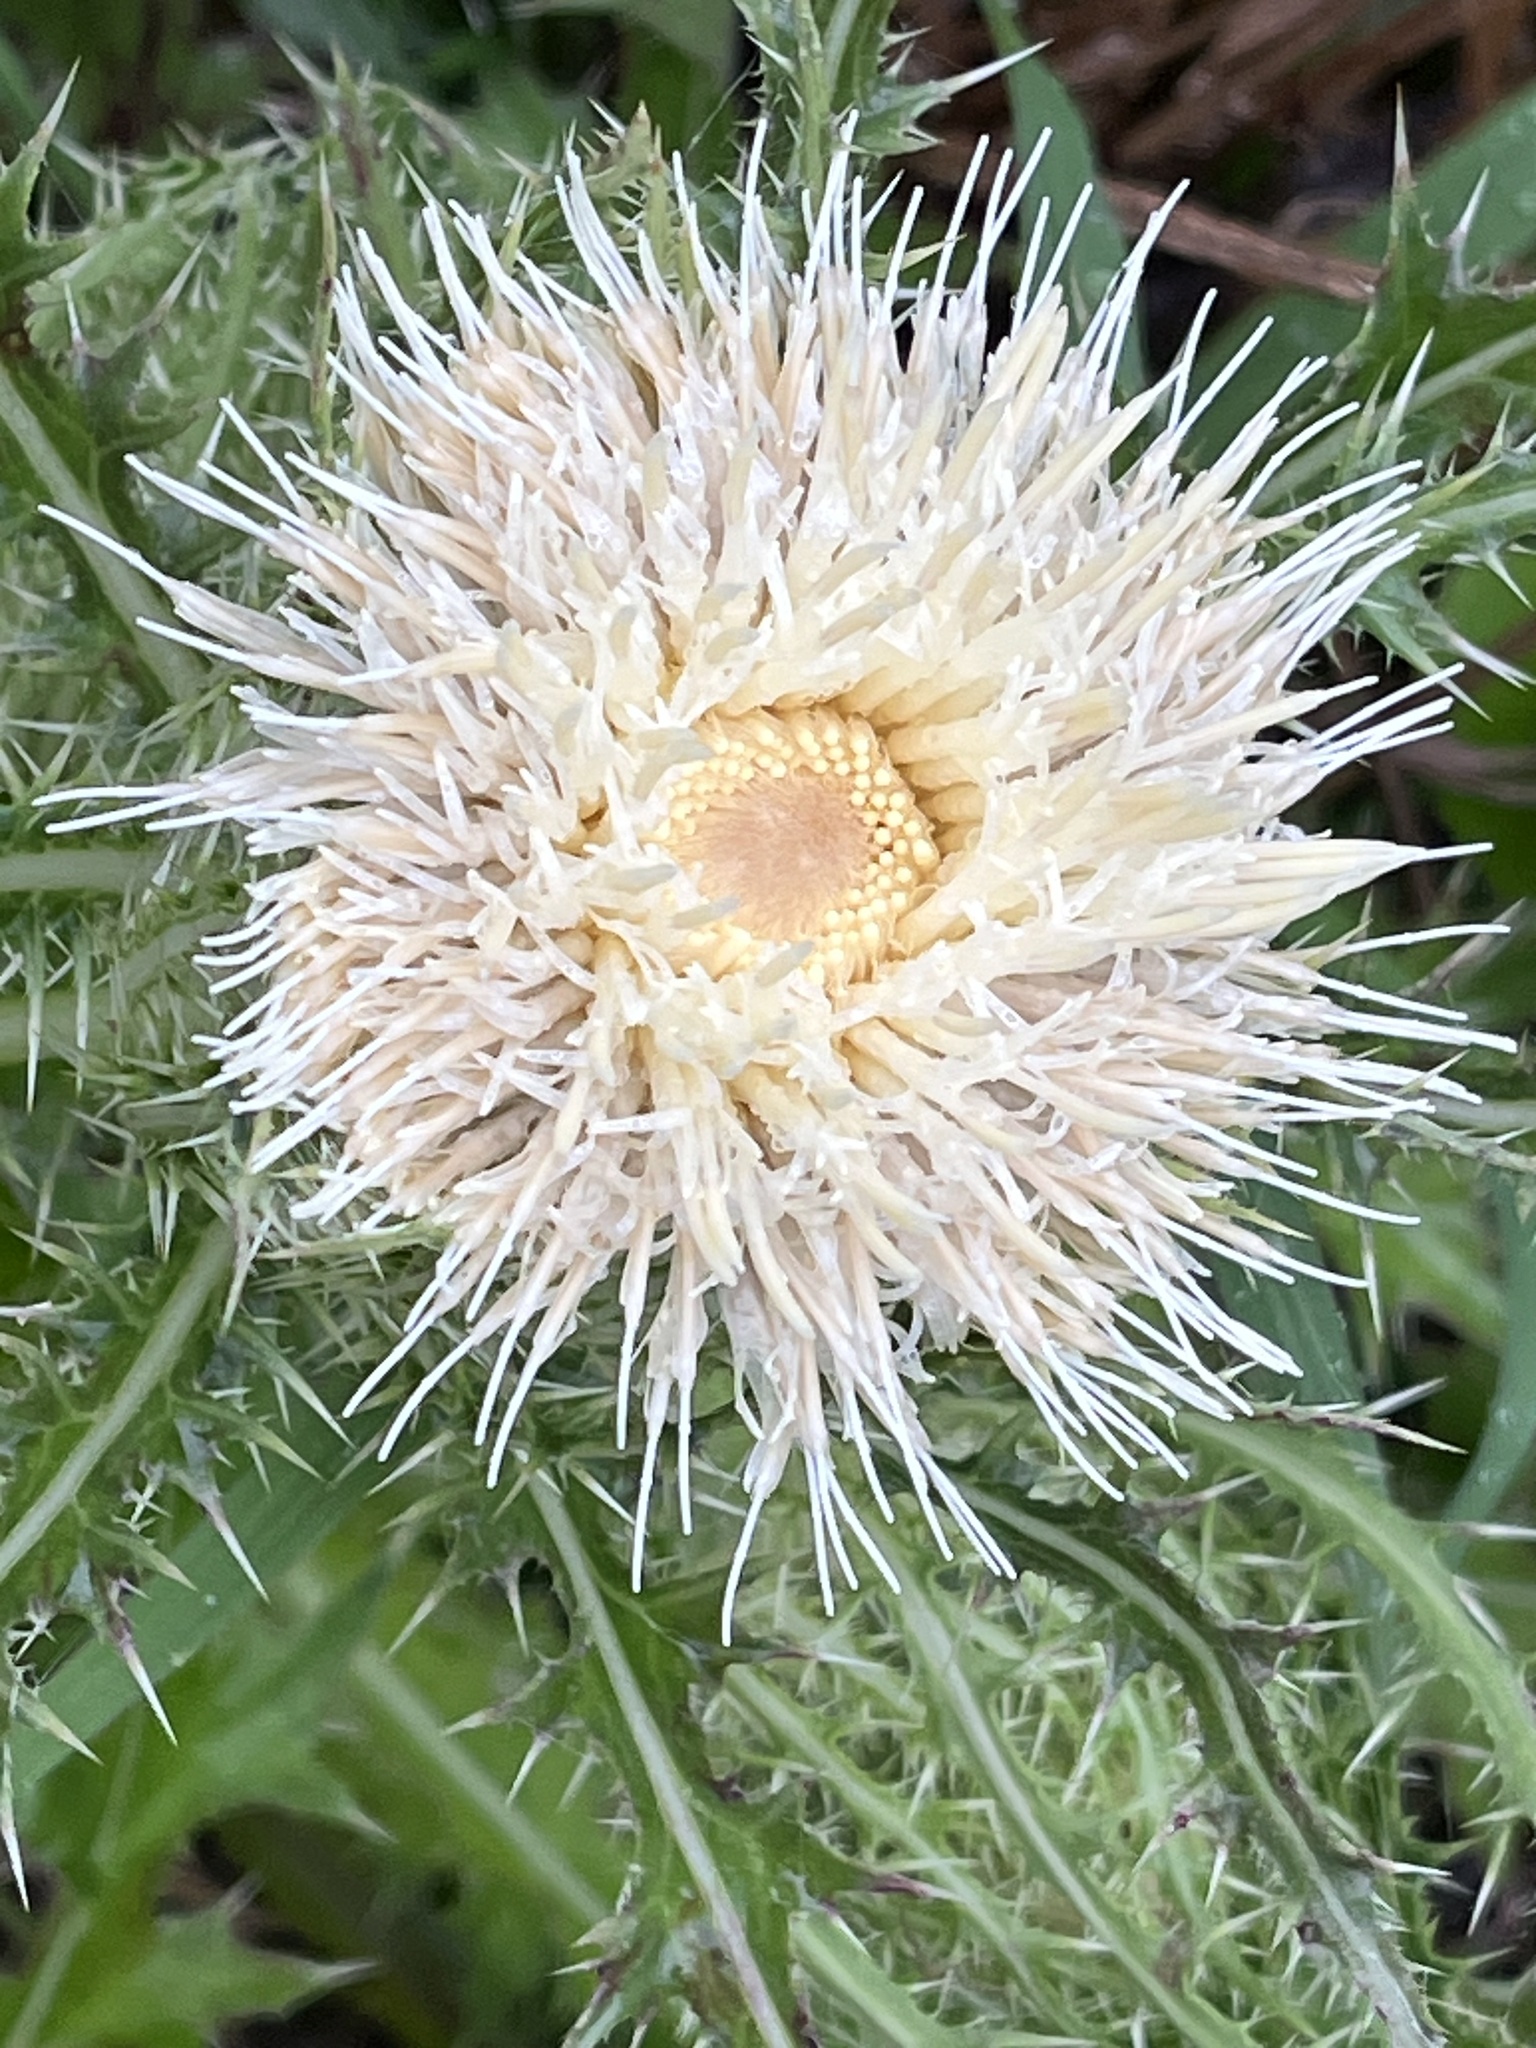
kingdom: Plantae
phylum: Tracheophyta
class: Magnoliopsida
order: Asterales
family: Asteraceae
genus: Cirsium
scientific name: Cirsium horridulum
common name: Bristly thistle
